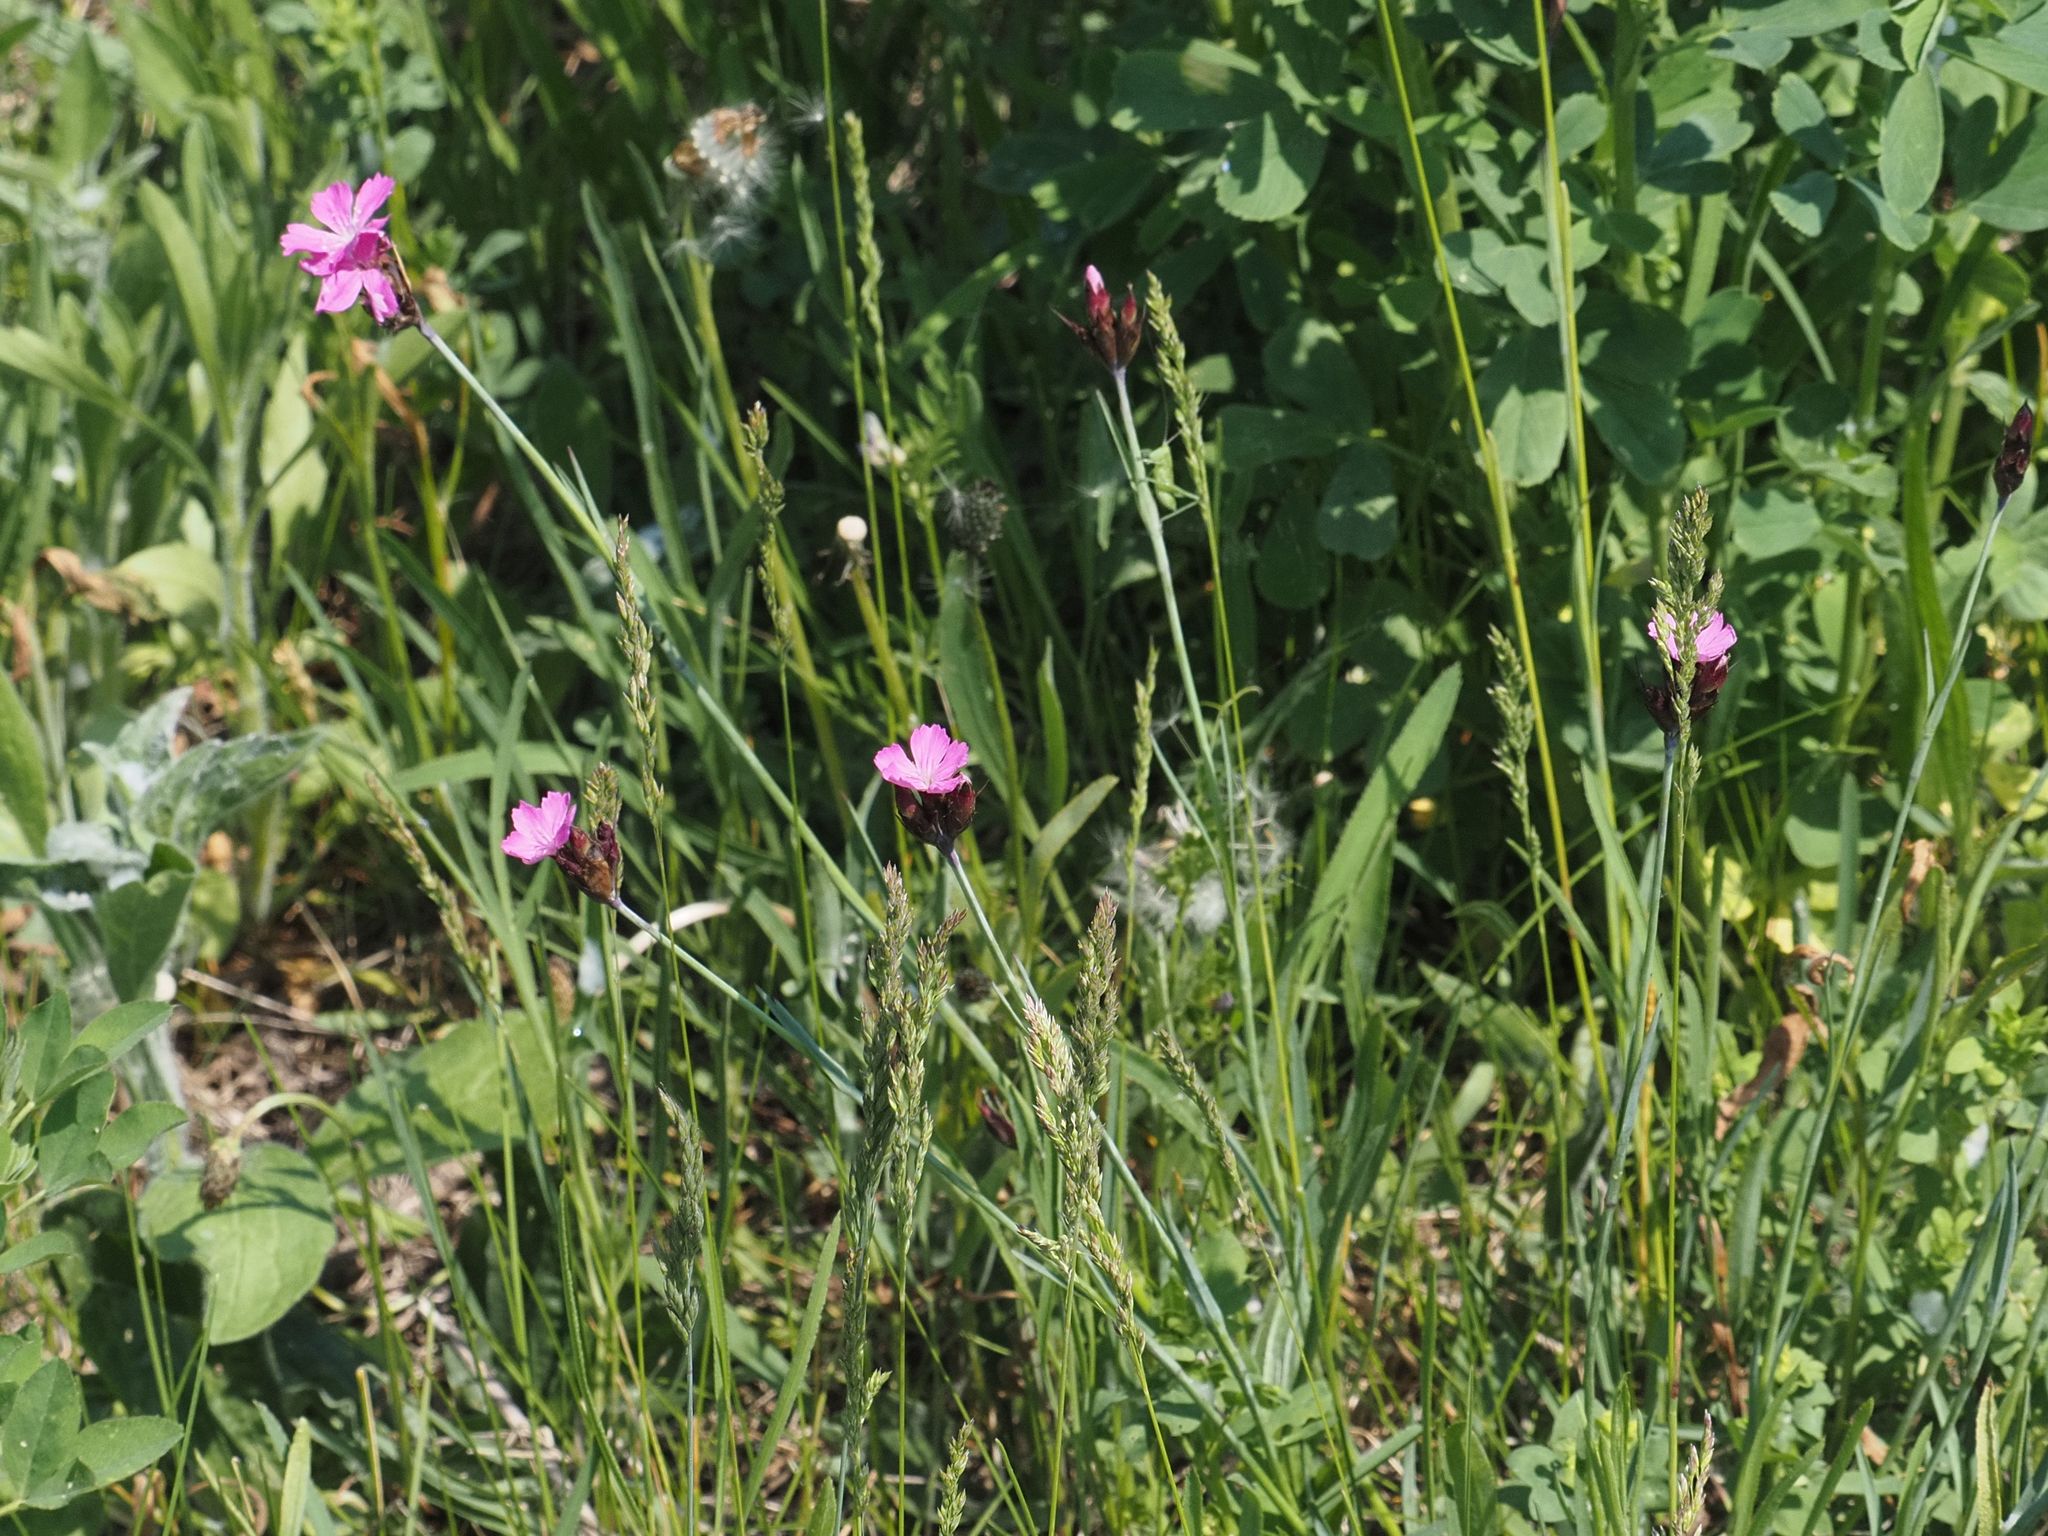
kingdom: Plantae
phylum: Tracheophyta
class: Magnoliopsida
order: Caryophyllales
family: Caryophyllaceae
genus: Dianthus
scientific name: Dianthus carthusianorum
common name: Carthusian pink
